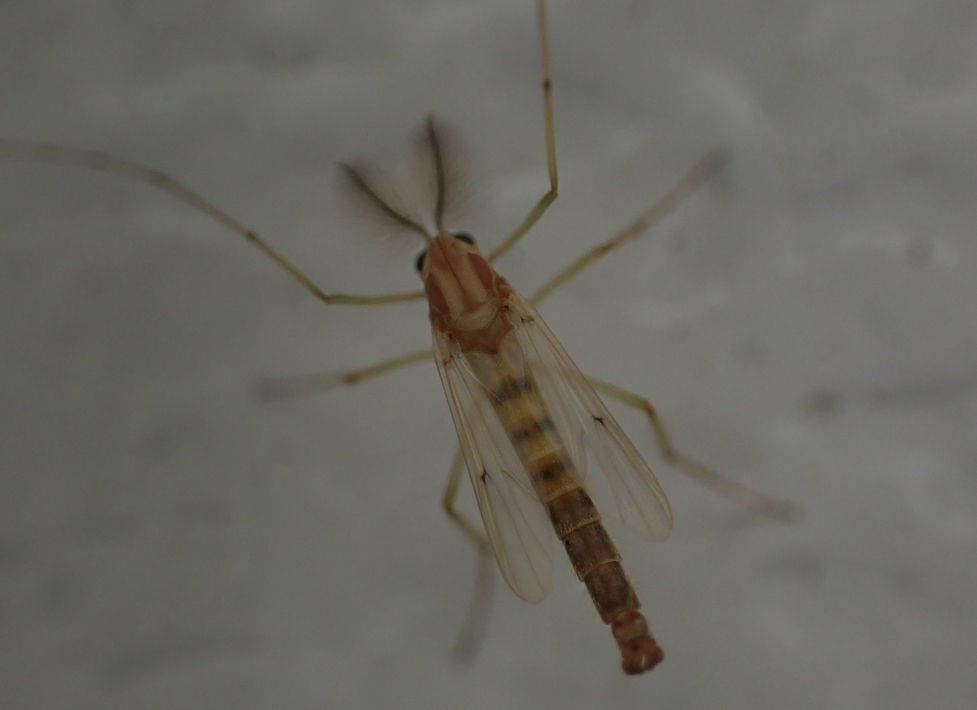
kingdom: Animalia
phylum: Arthropoda
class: Insecta
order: Diptera
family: Chironomidae
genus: Chironomus
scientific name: Chironomus crassicaudatus
